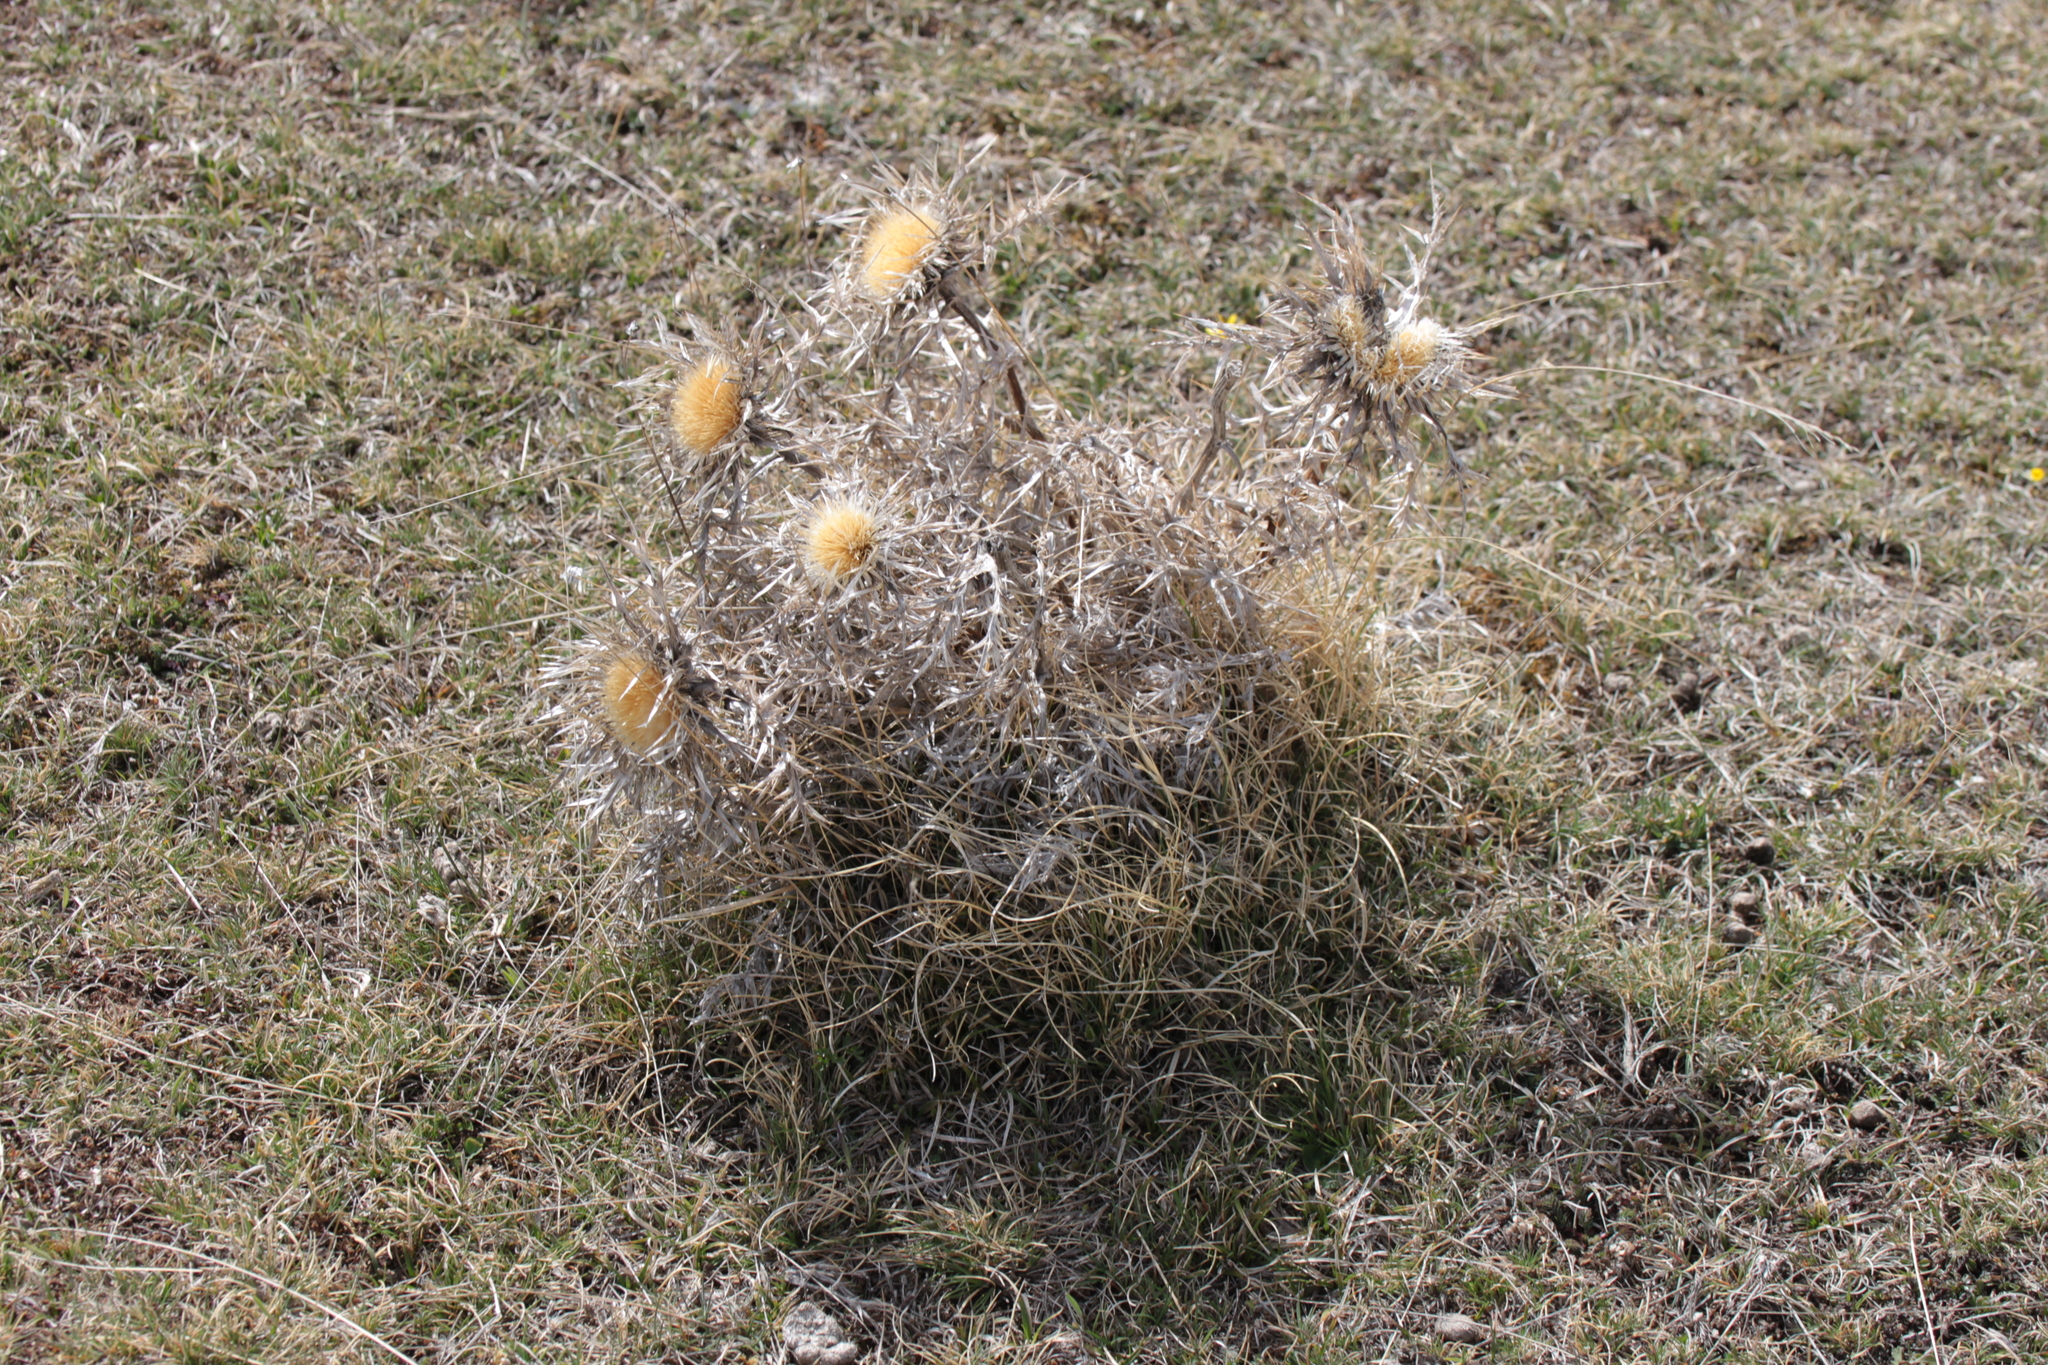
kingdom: Plantae
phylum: Tracheophyta
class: Magnoliopsida
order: Asterales
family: Asteraceae
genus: Carlina
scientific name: Carlina acaulis
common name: Stemless carline thistle
